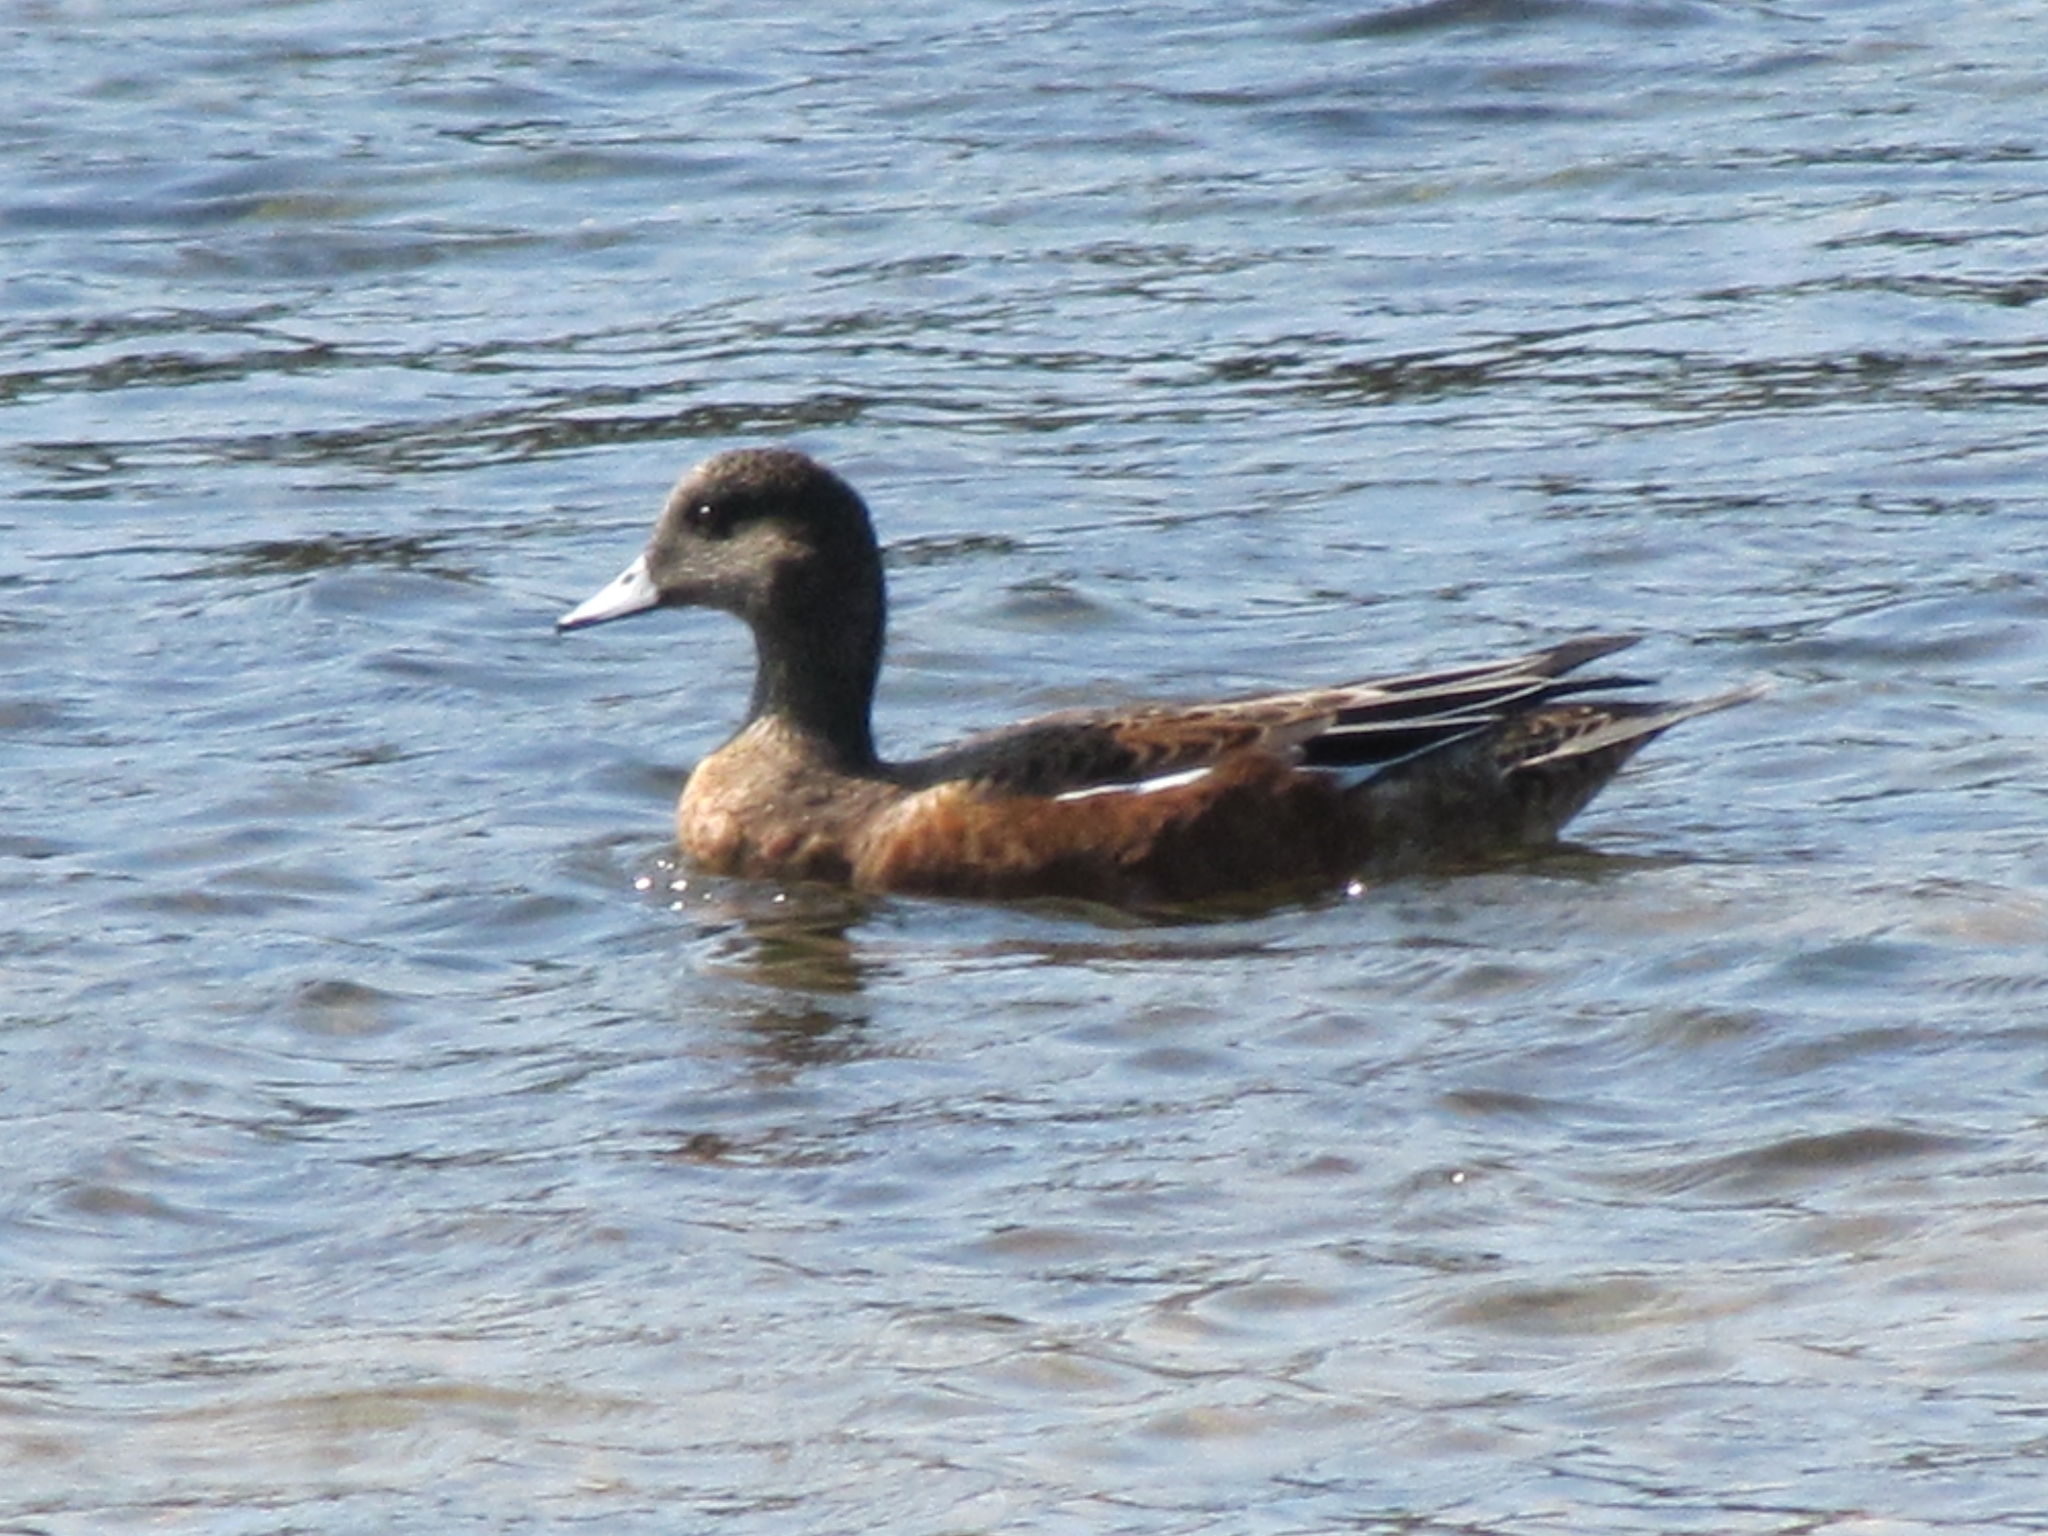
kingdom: Animalia
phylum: Chordata
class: Aves
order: Anseriformes
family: Anatidae
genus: Mareca
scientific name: Mareca americana
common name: American wigeon
